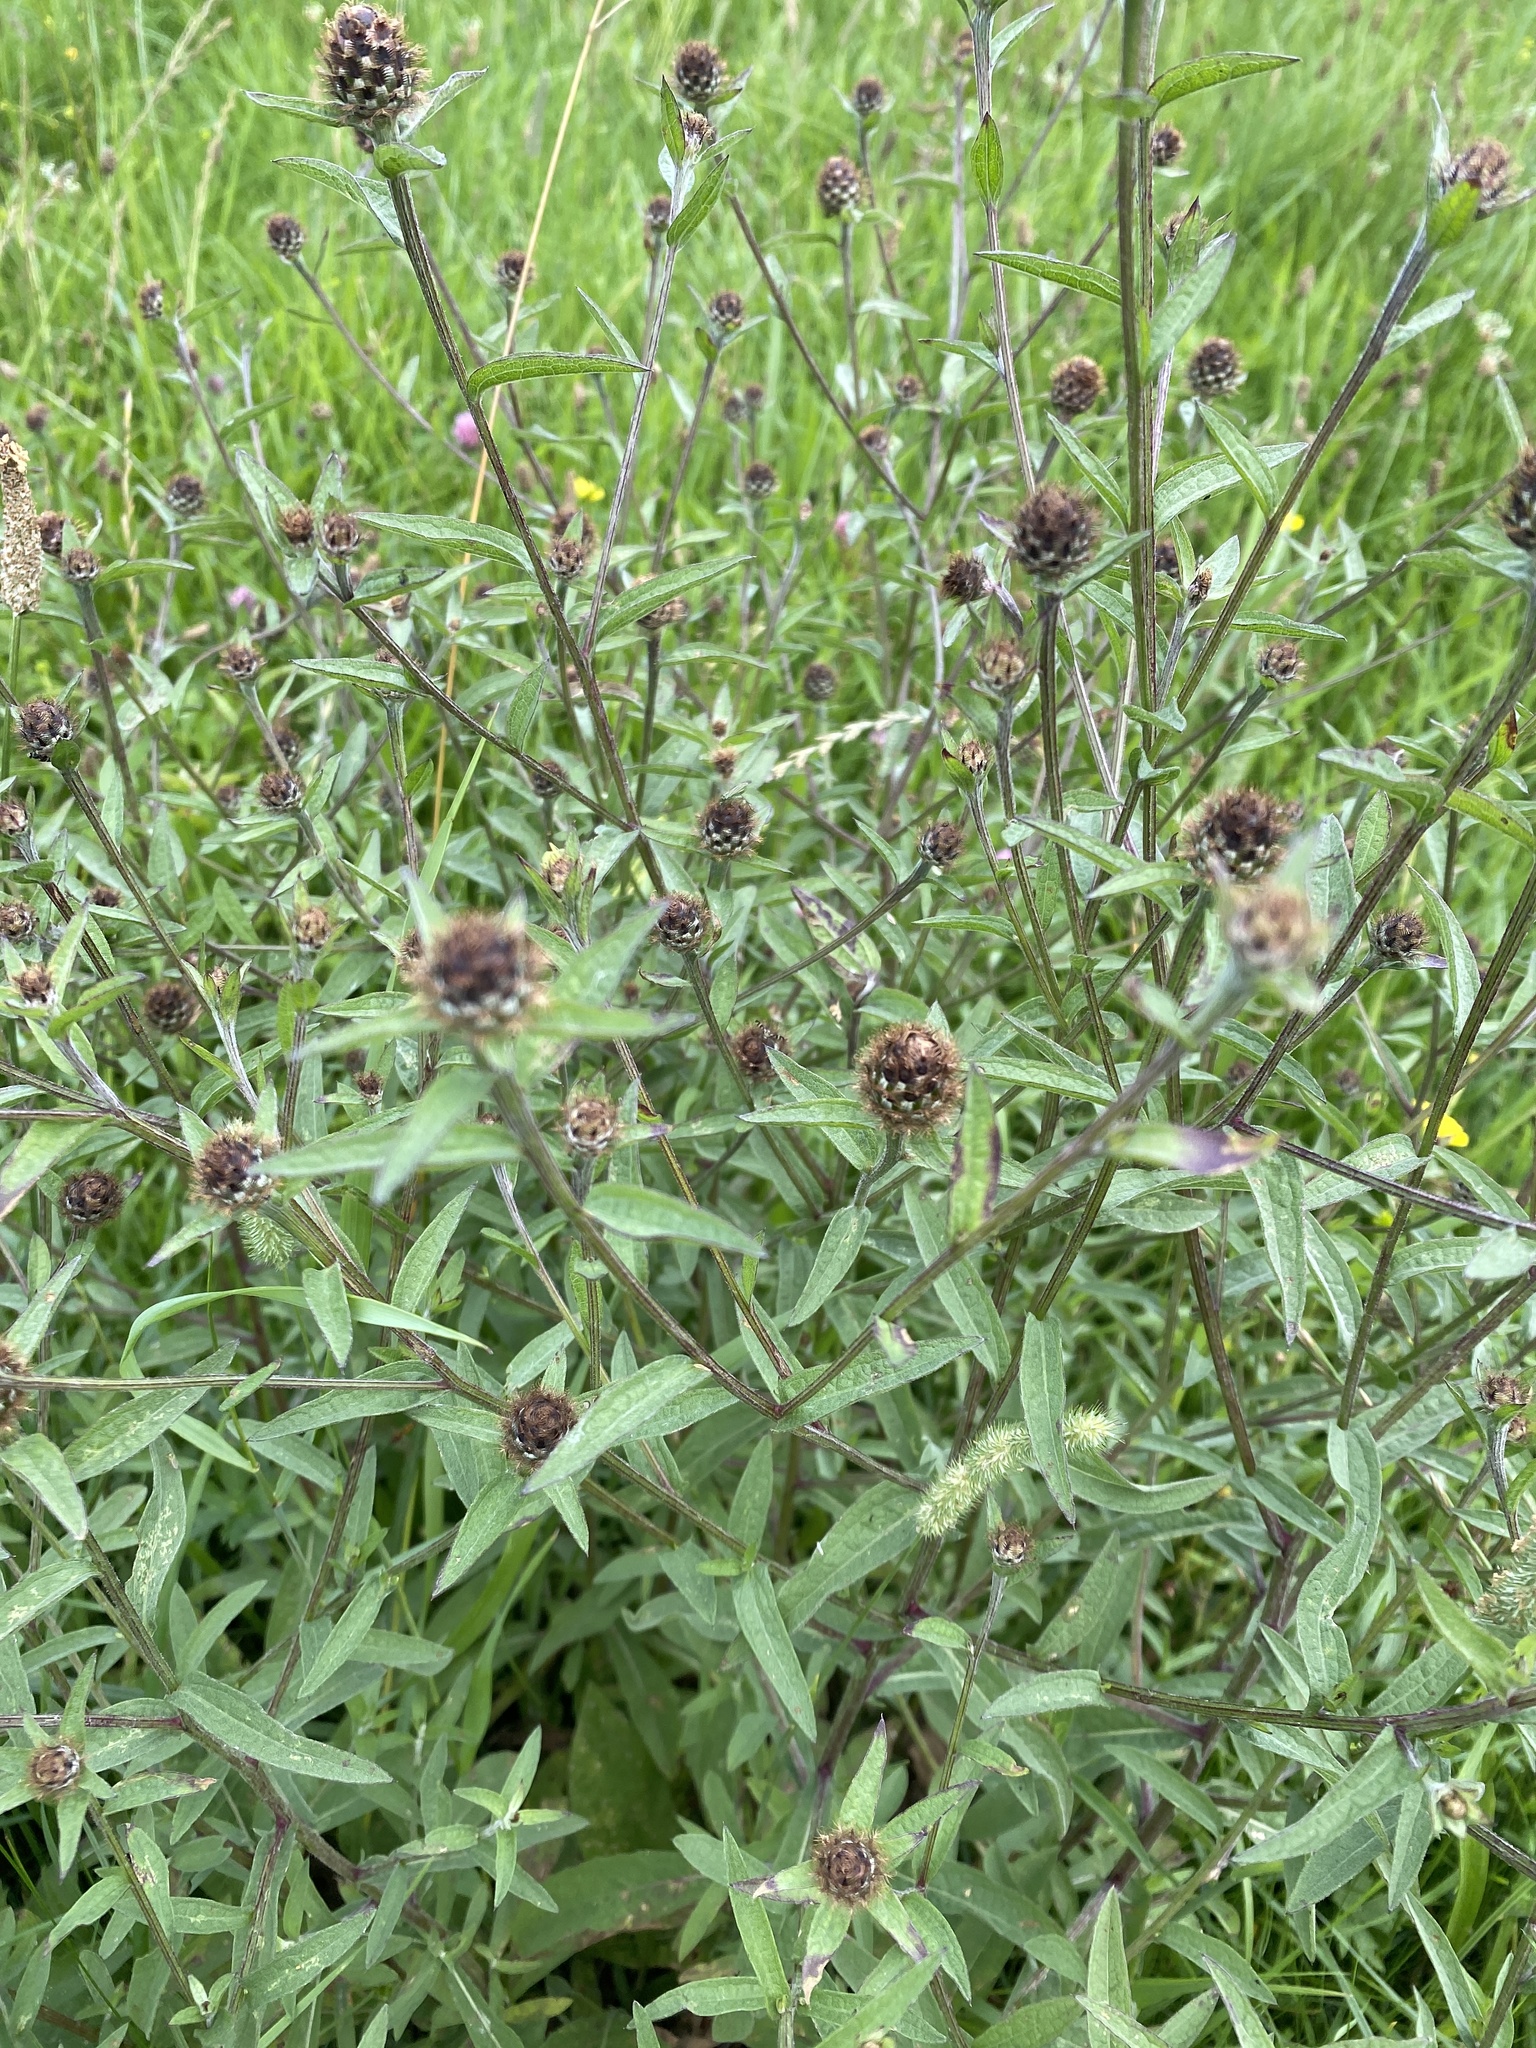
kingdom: Plantae
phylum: Tracheophyta
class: Magnoliopsida
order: Asterales
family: Asteraceae
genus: Centaurea
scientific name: Centaurea nigra
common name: Lesser knapweed
